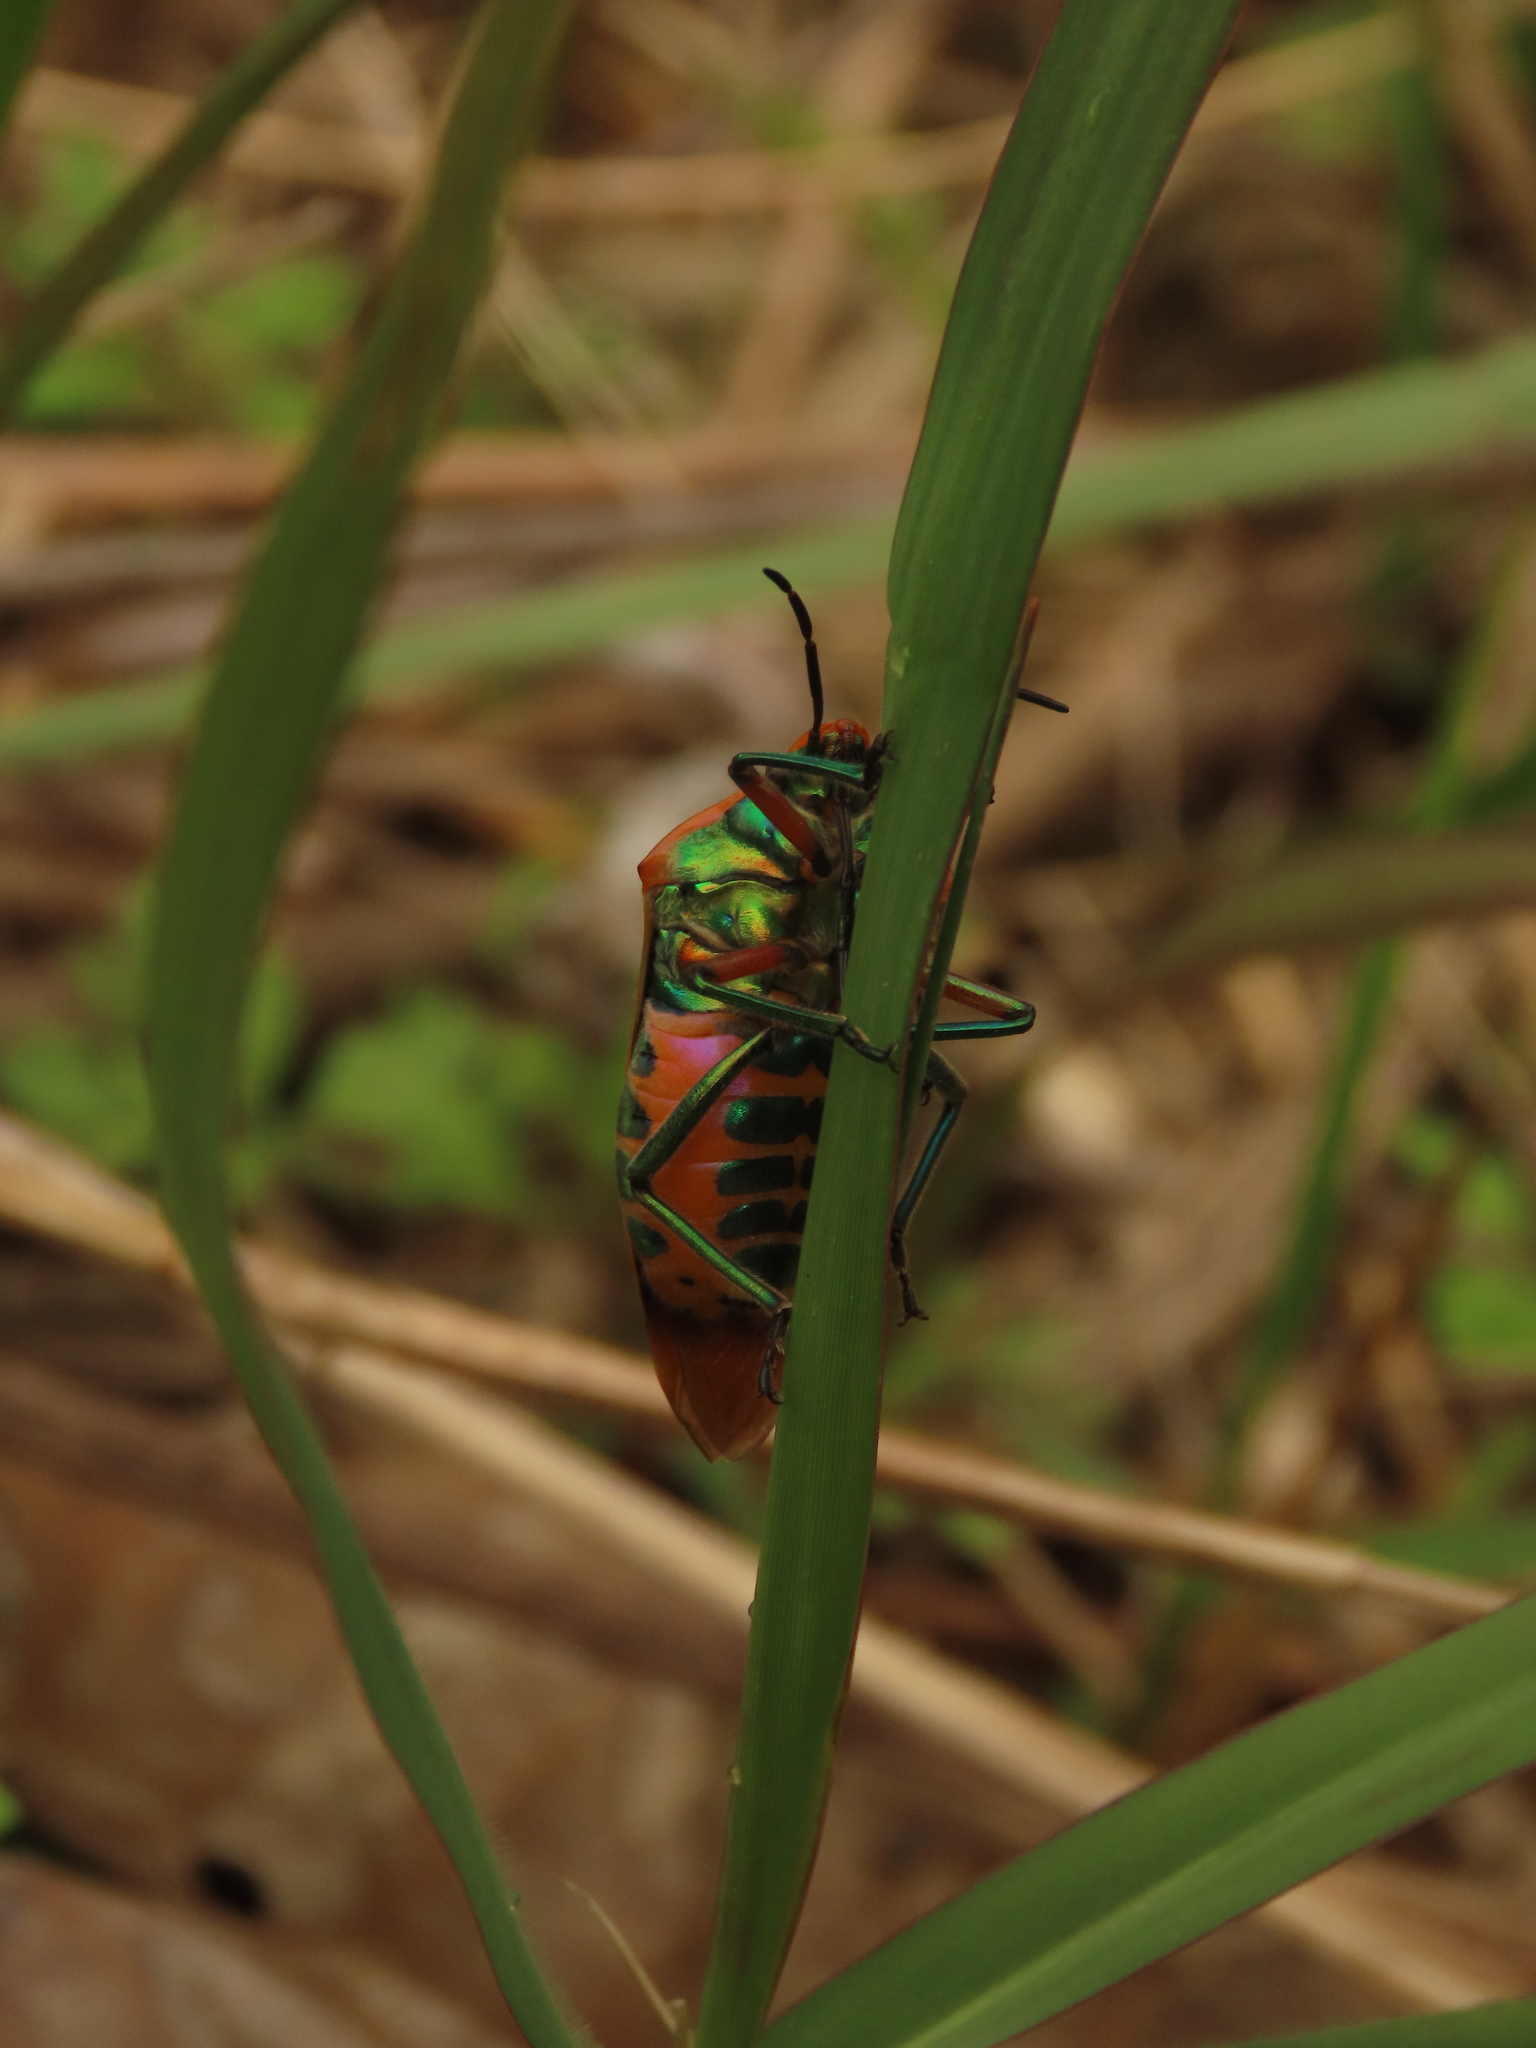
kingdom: Animalia
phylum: Arthropoda
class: Insecta
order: Hemiptera
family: Scutelleridae
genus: Cantao
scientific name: Cantao ocellatus
